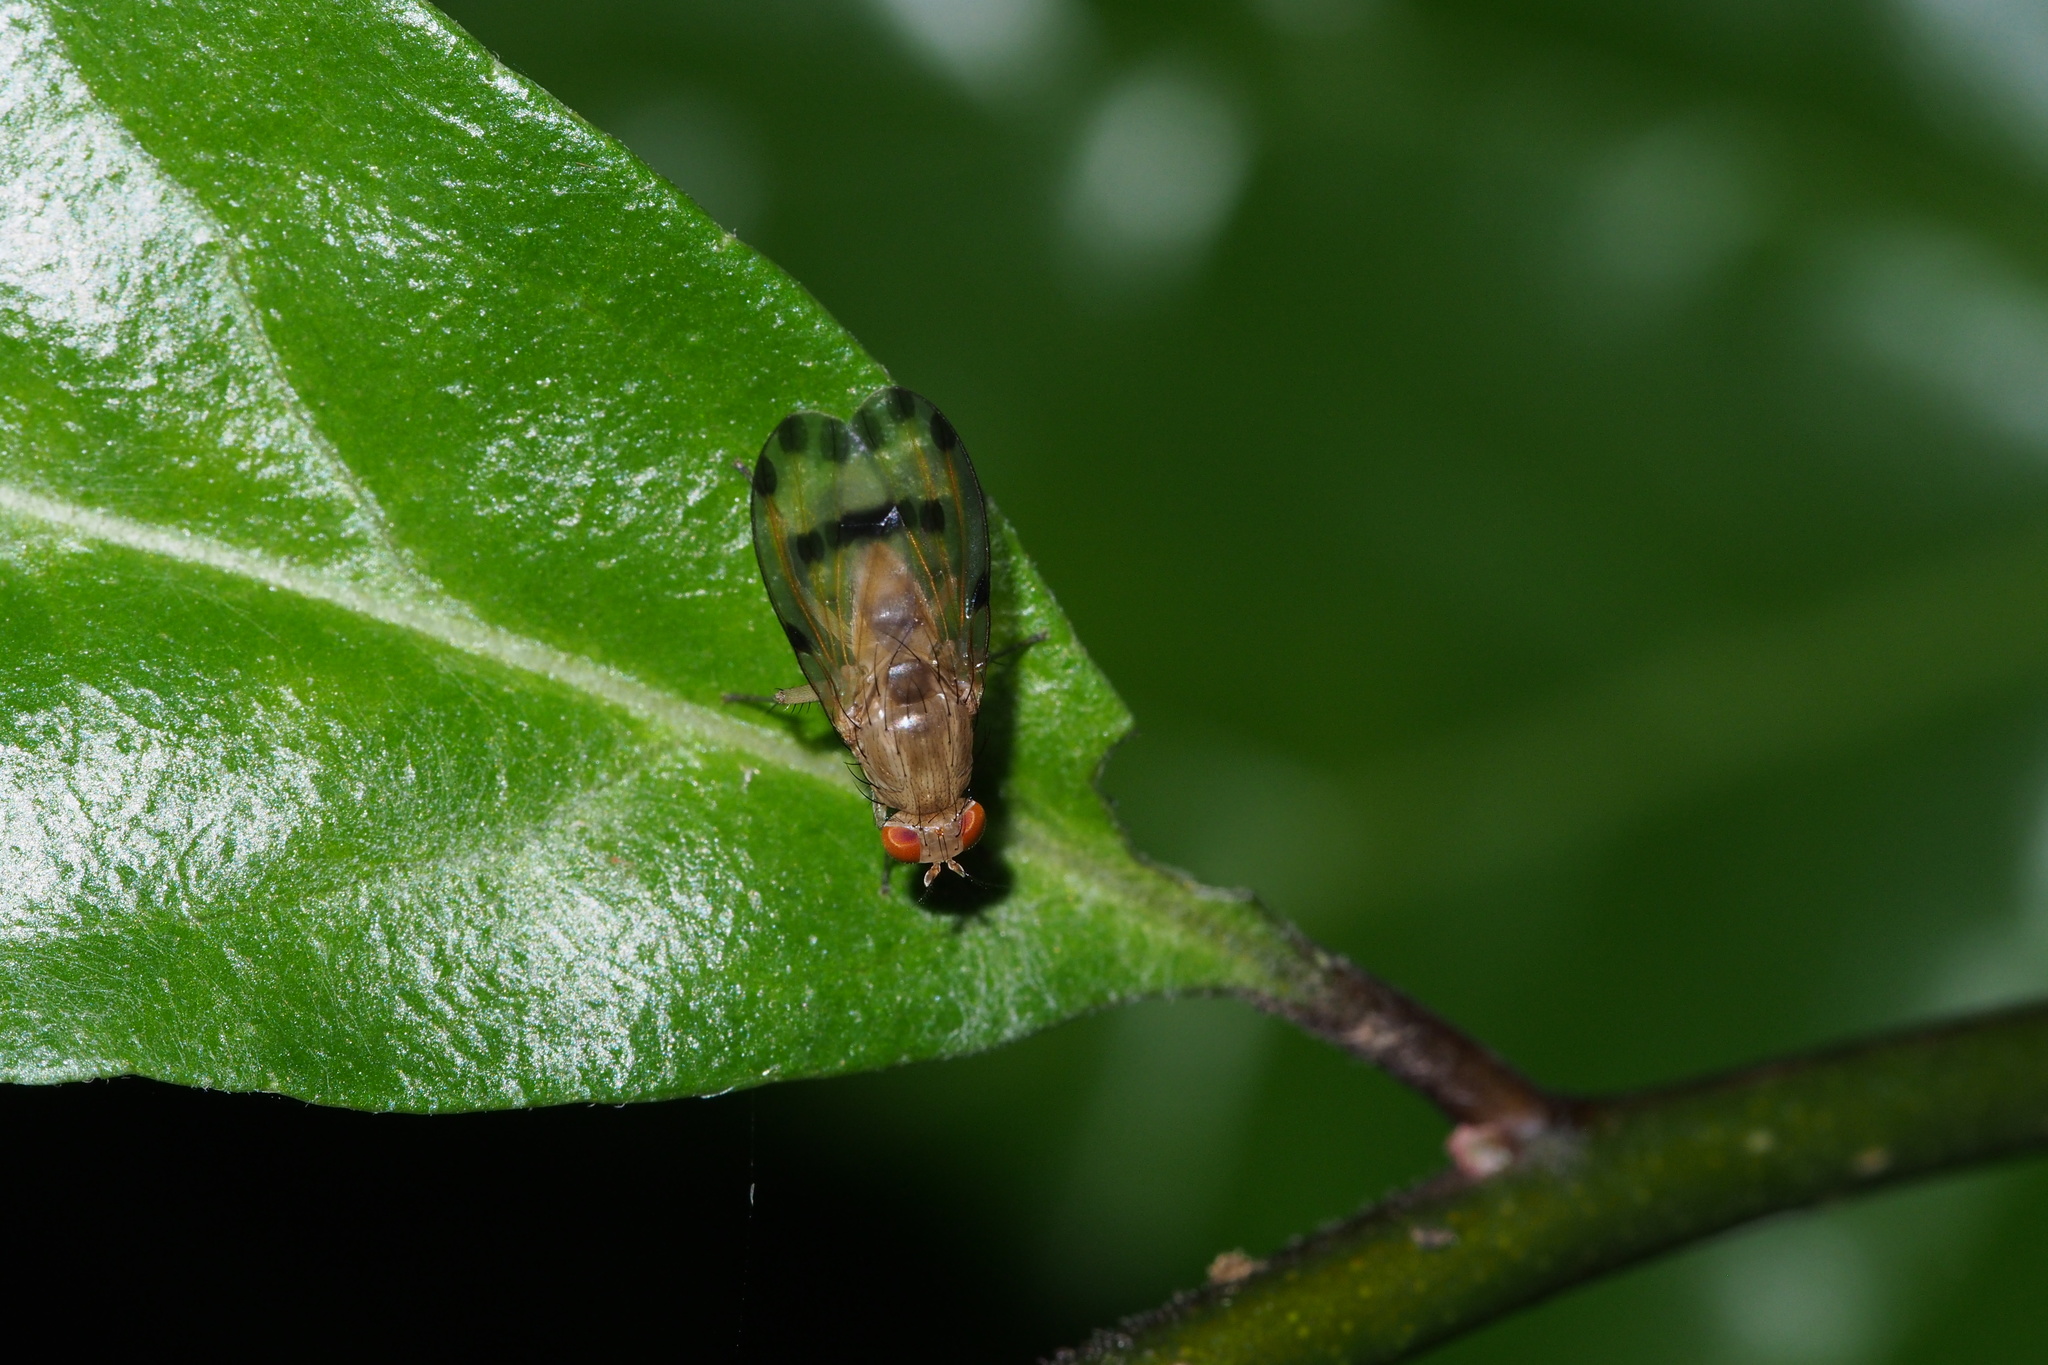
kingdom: Animalia
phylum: Arthropoda
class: Insecta
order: Diptera
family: Lauxaniidae
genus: Homoneura
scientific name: Homoneura
